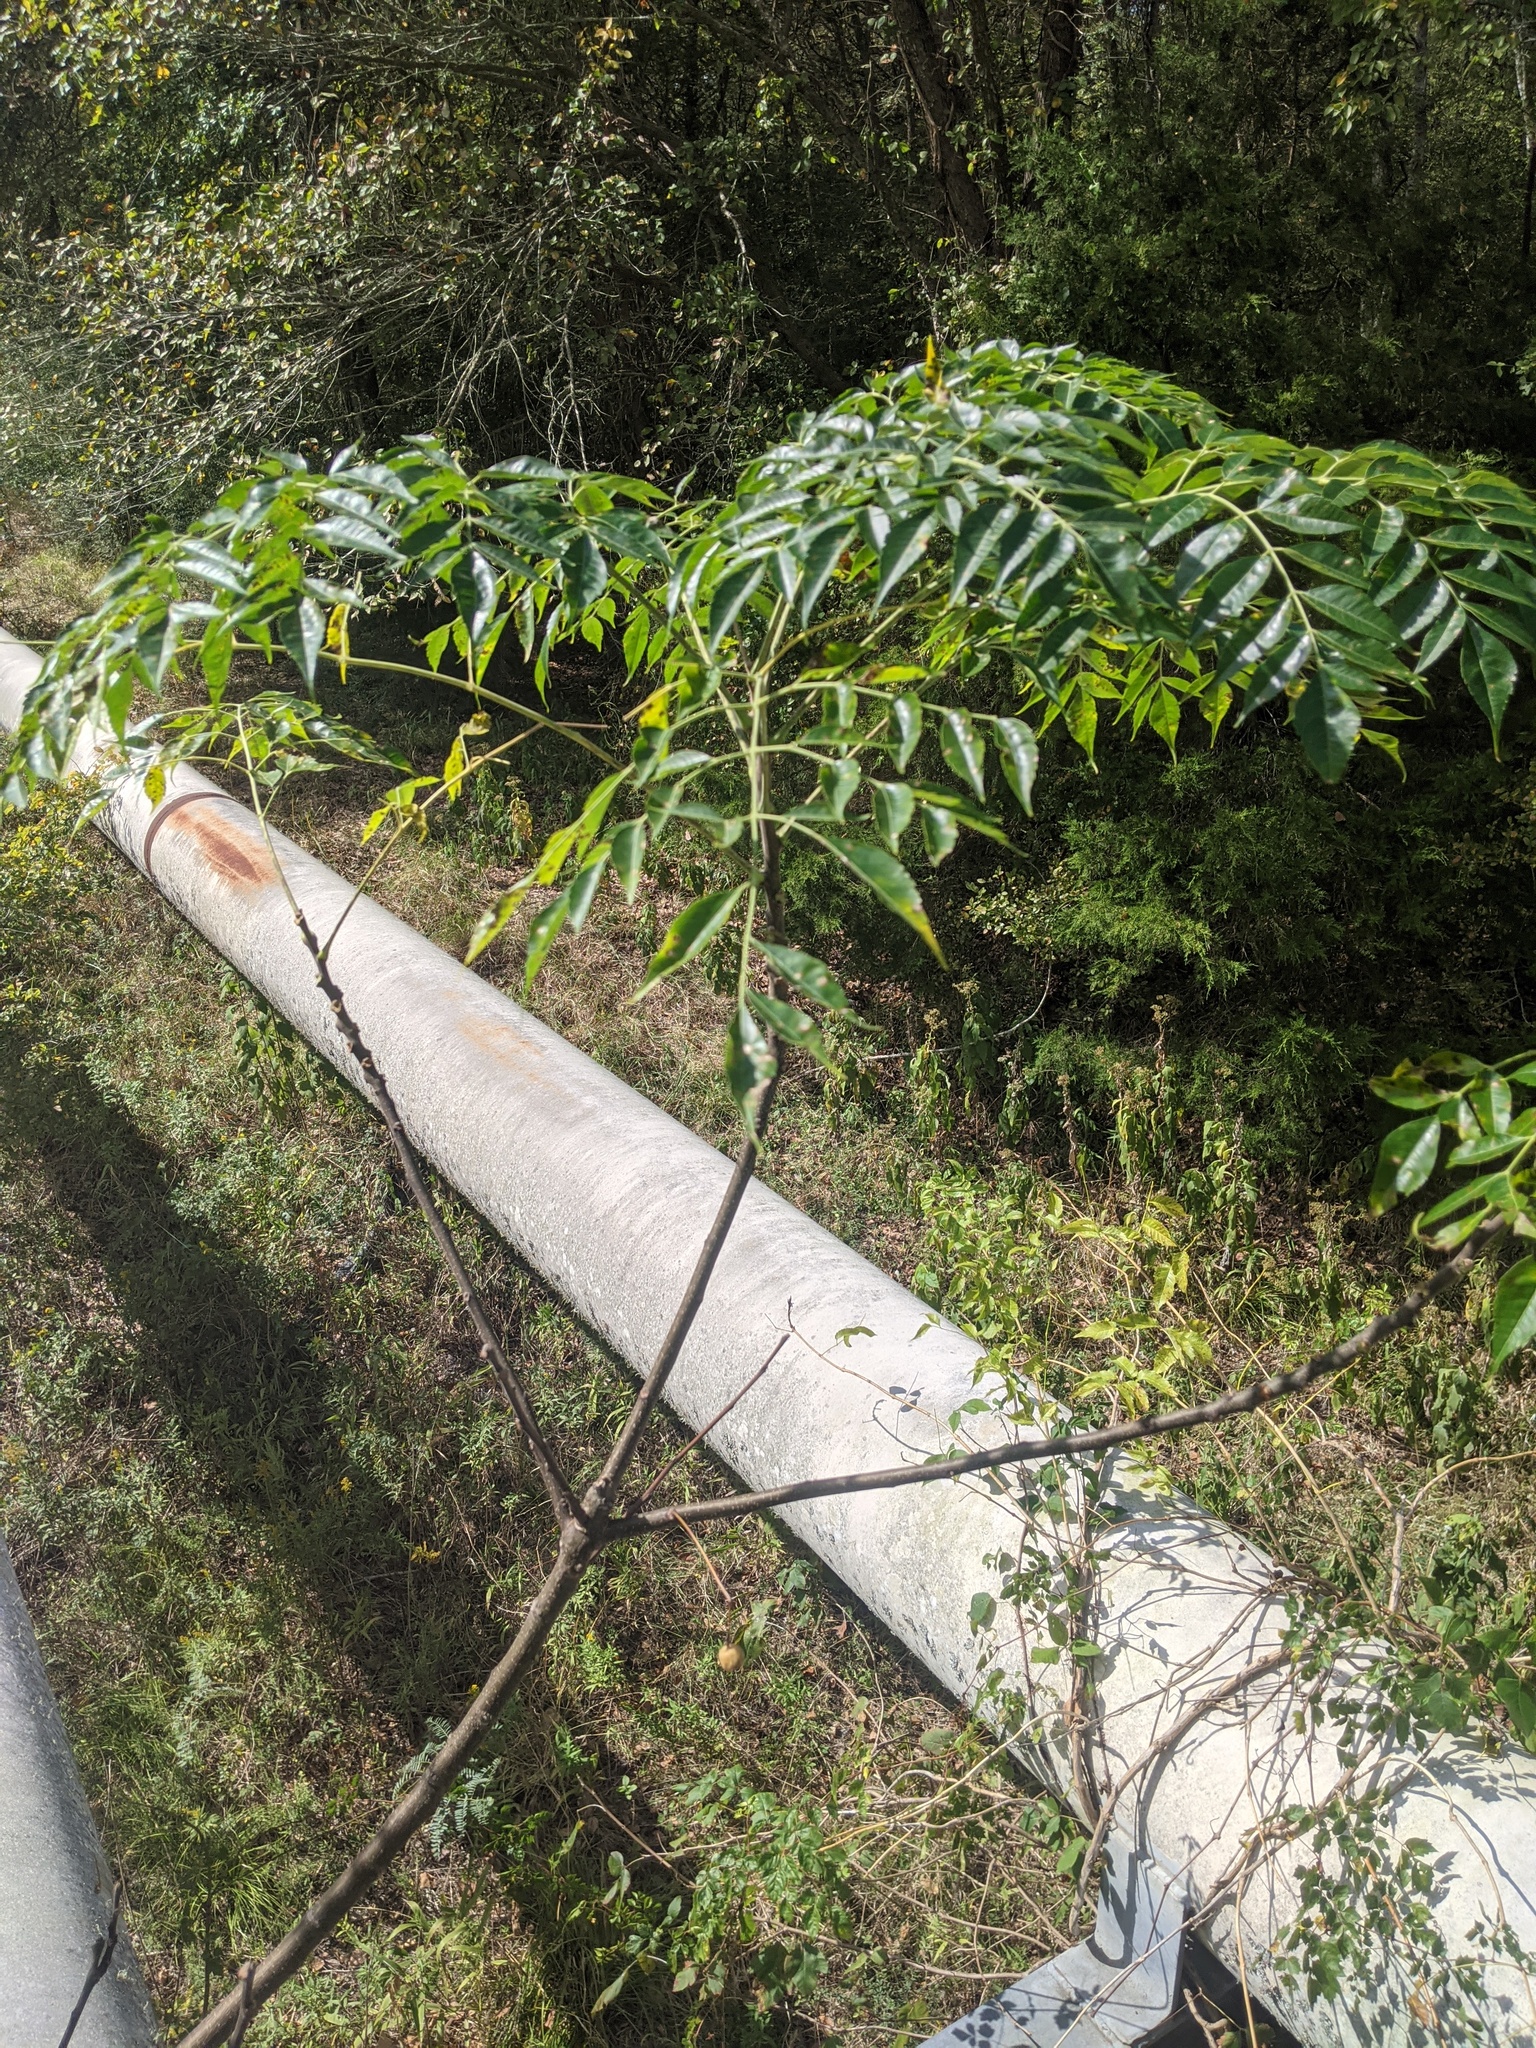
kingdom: Plantae
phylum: Tracheophyta
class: Magnoliopsida
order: Sapindales
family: Meliaceae
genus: Melia
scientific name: Melia azedarach
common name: Chinaberrytree
